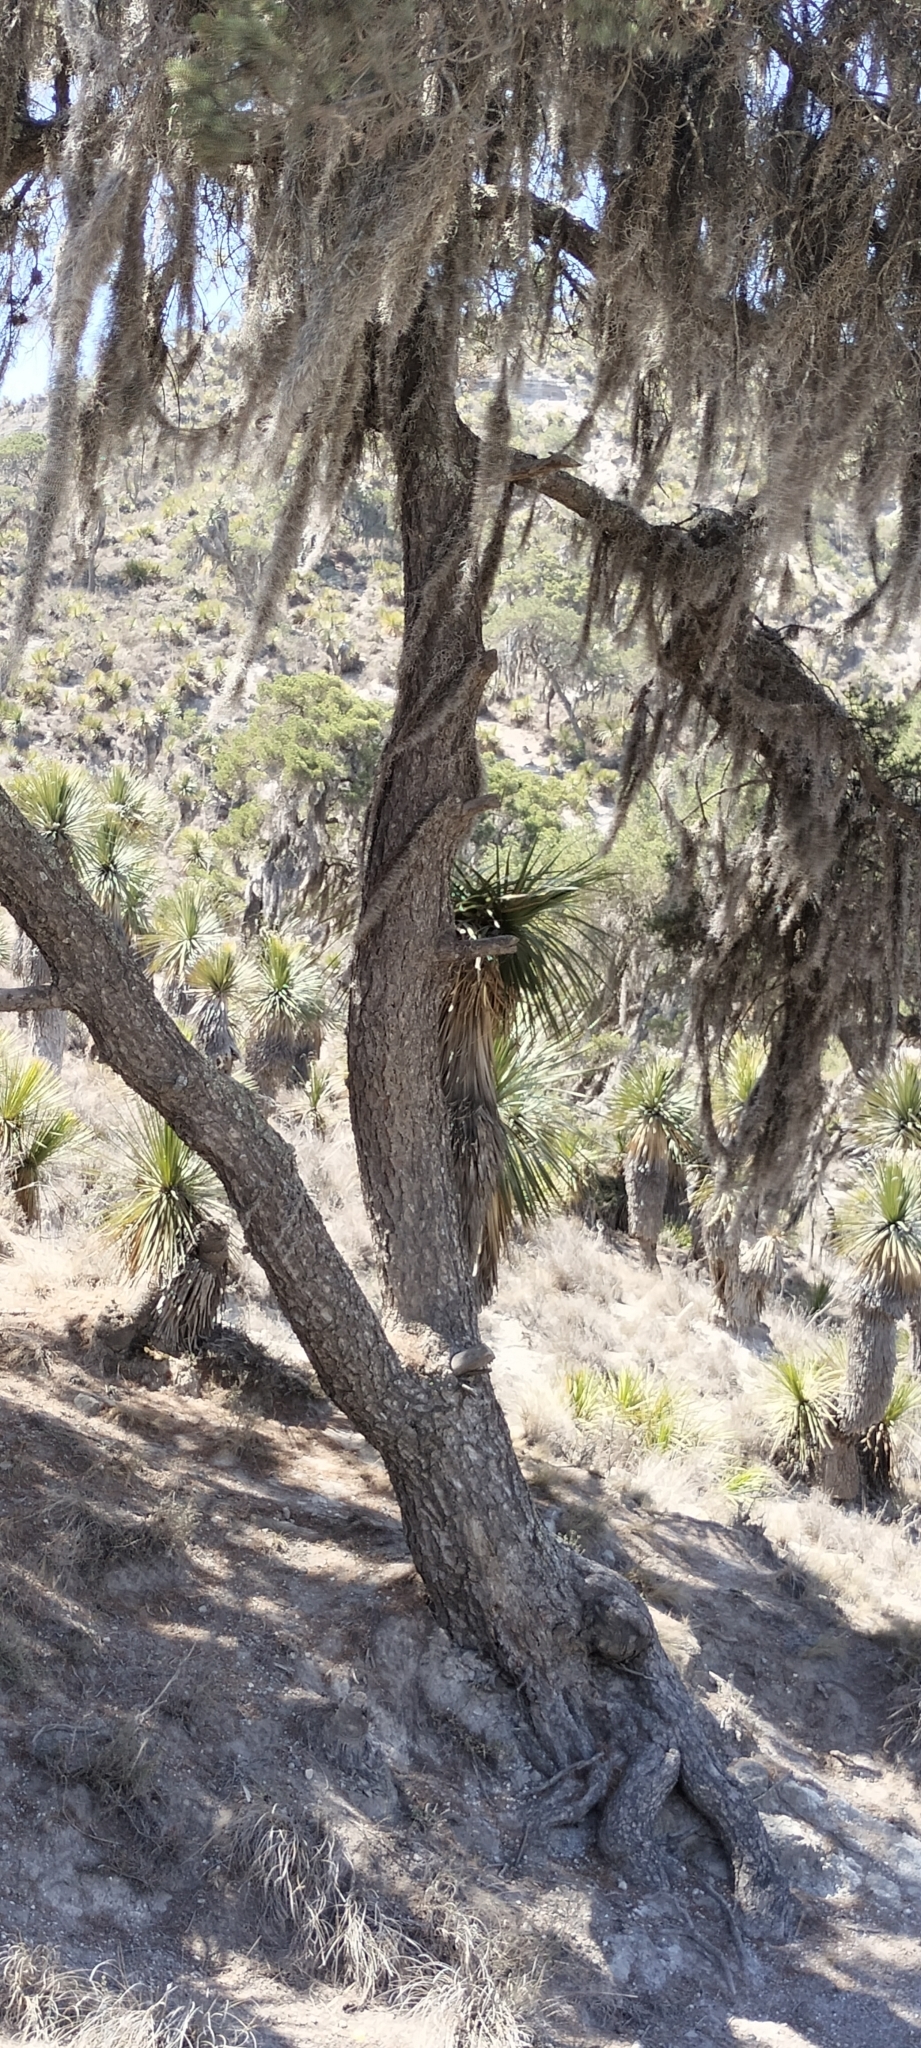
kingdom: Plantae
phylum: Tracheophyta
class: Liliopsida
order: Poales
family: Bromeliaceae
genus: Tillandsia
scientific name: Tillandsia usneoides
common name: Spanish moss
